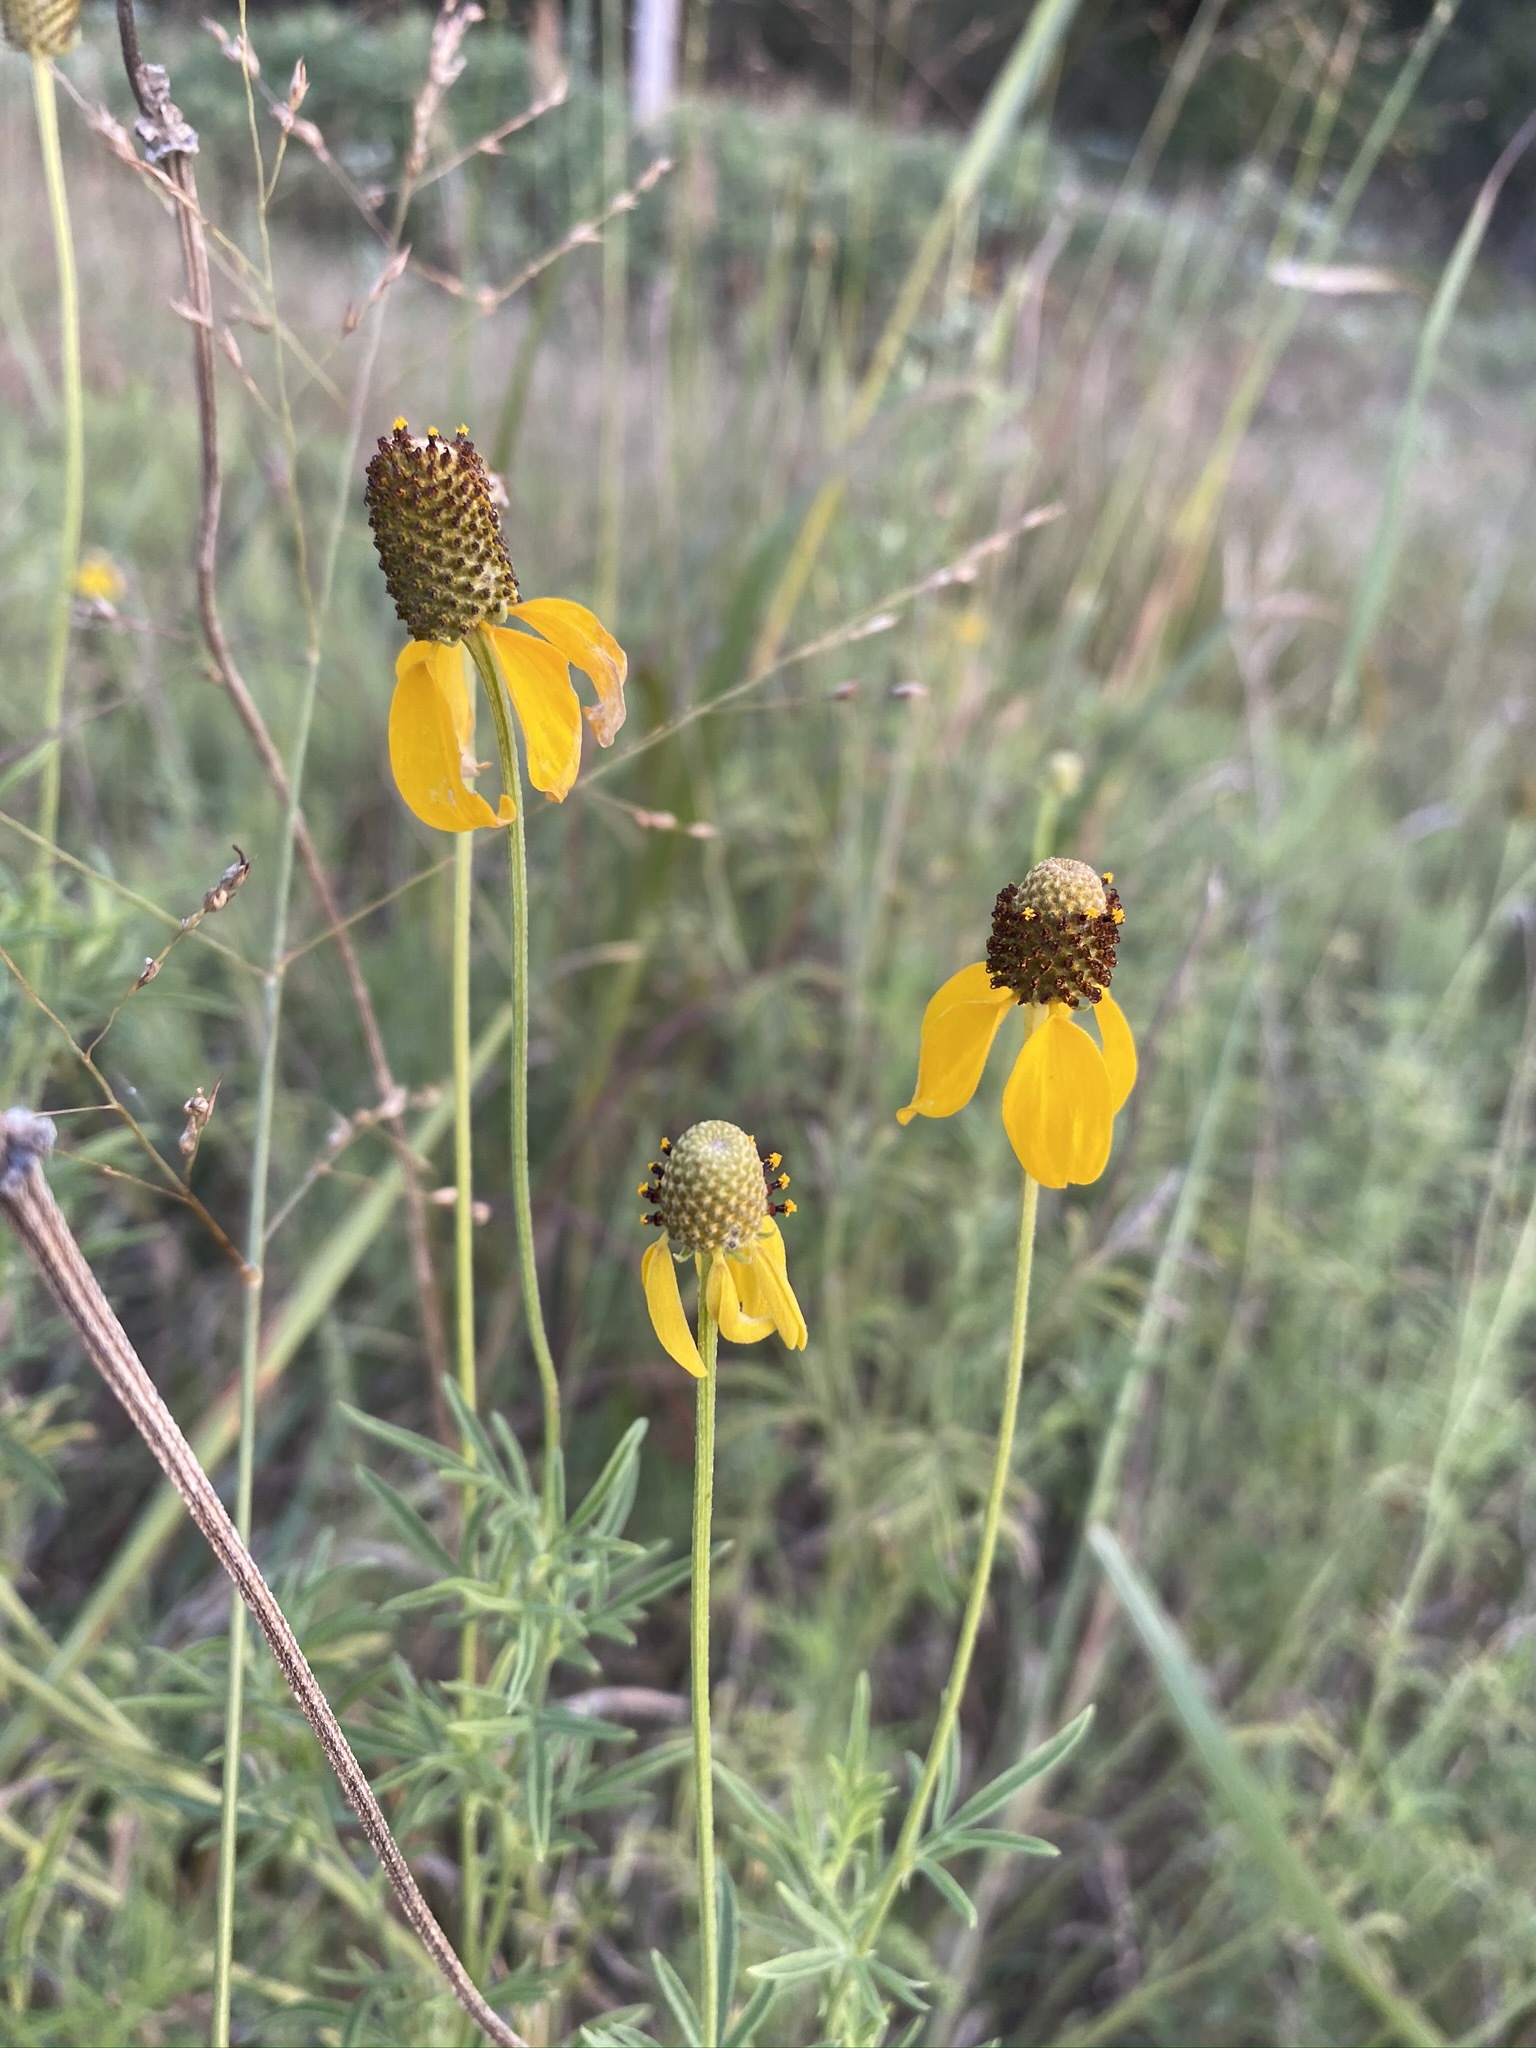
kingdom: Plantae
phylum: Tracheophyta
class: Magnoliopsida
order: Asterales
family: Asteraceae
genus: Ratibida
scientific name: Ratibida columnifera
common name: Prairie coneflower
